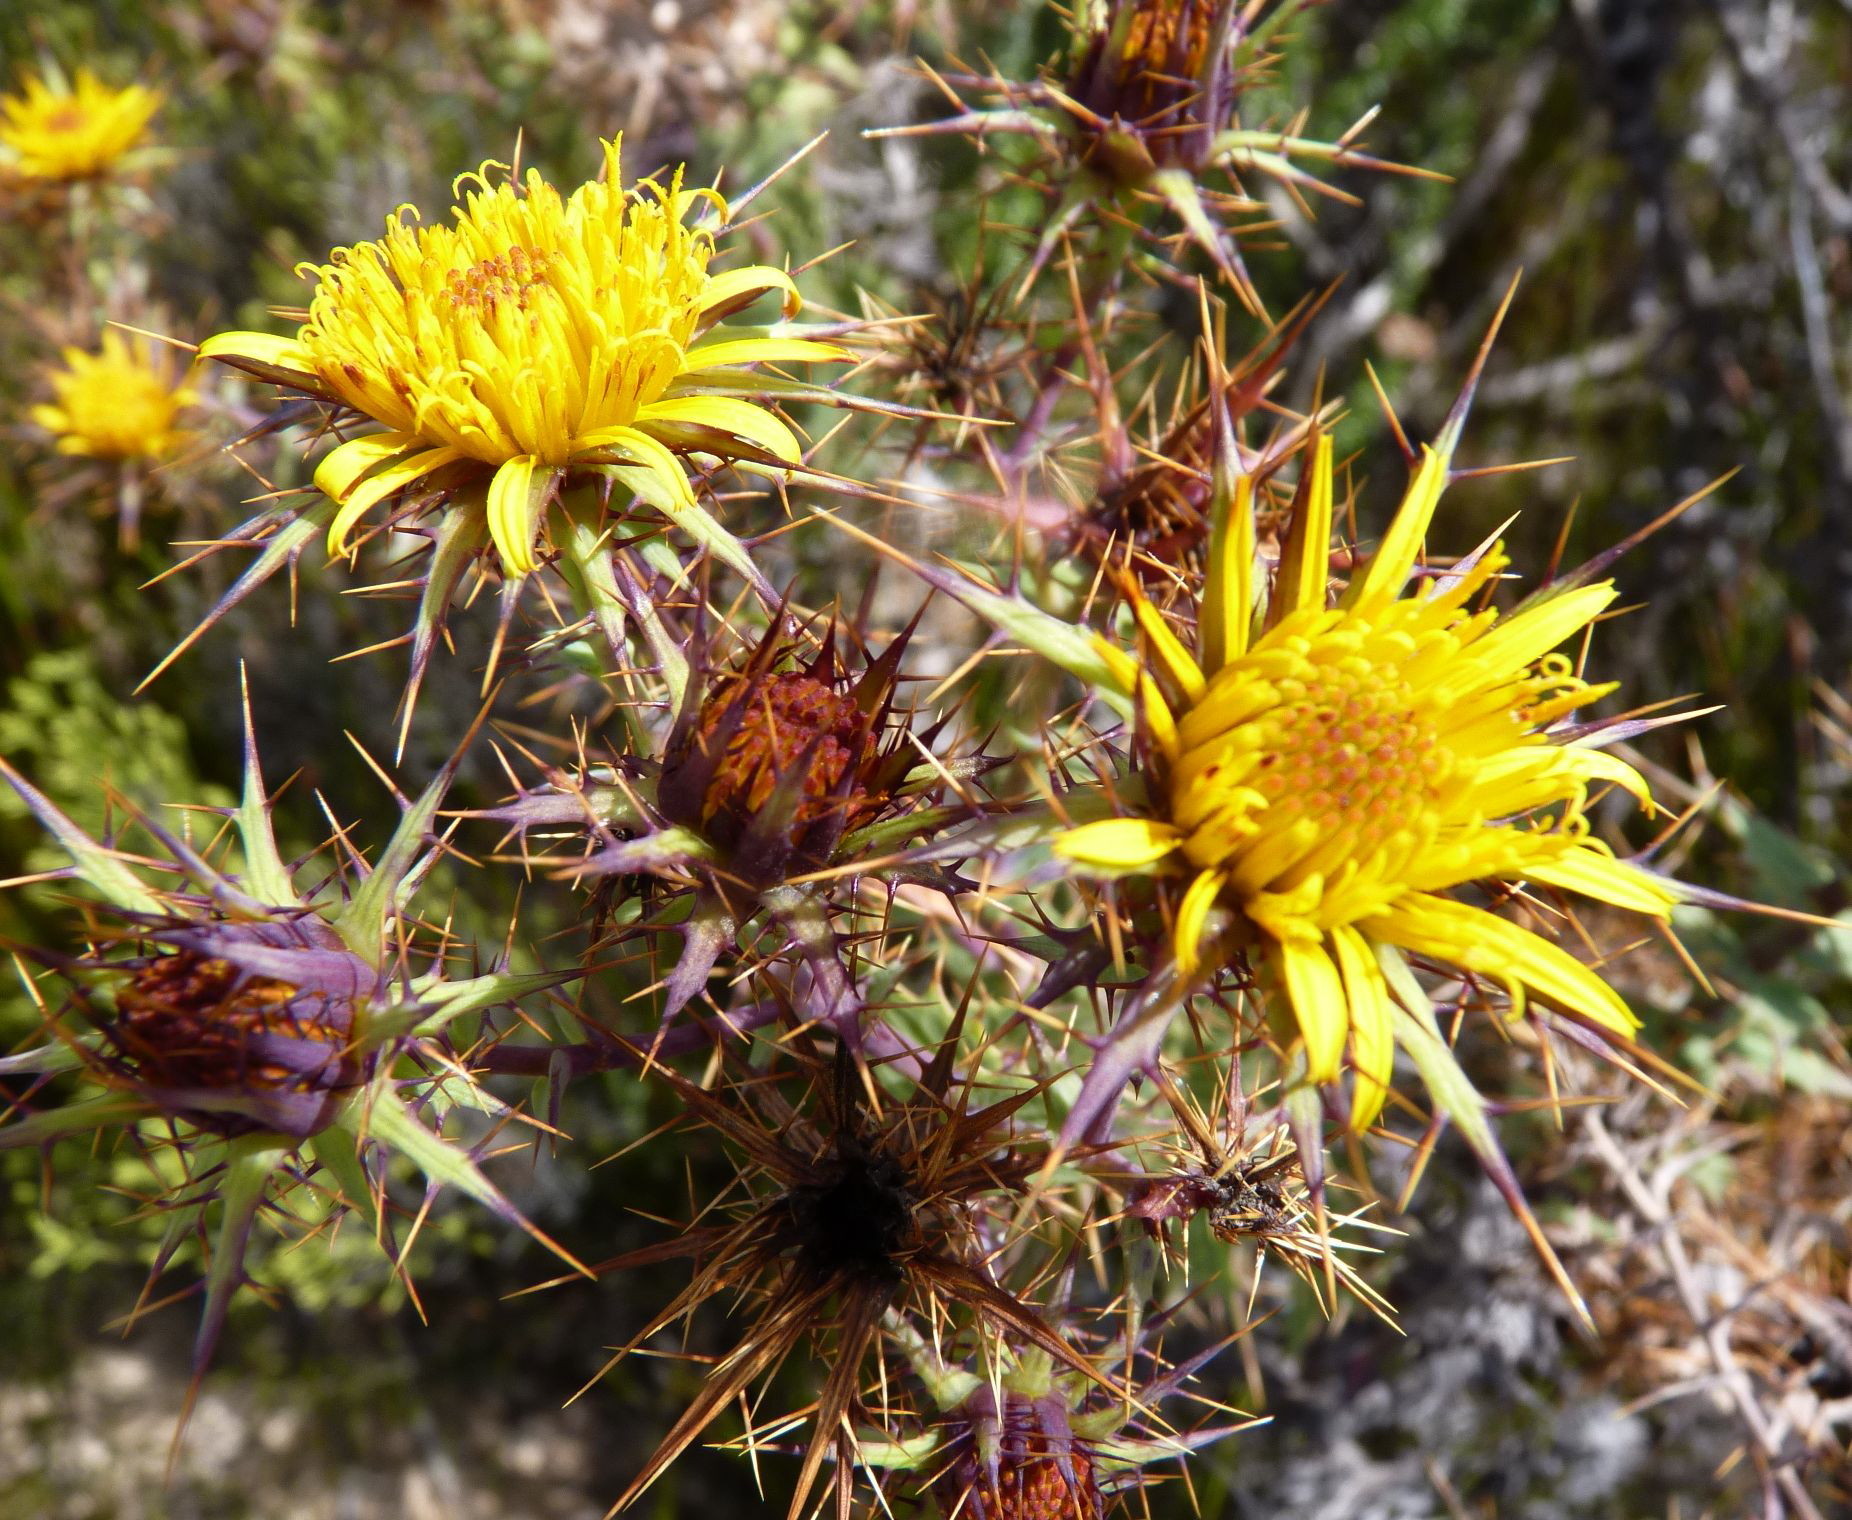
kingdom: Plantae
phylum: Tracheophyta
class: Magnoliopsida
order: Asterales
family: Asteraceae
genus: Berkheya
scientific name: Berkheya cruciata
